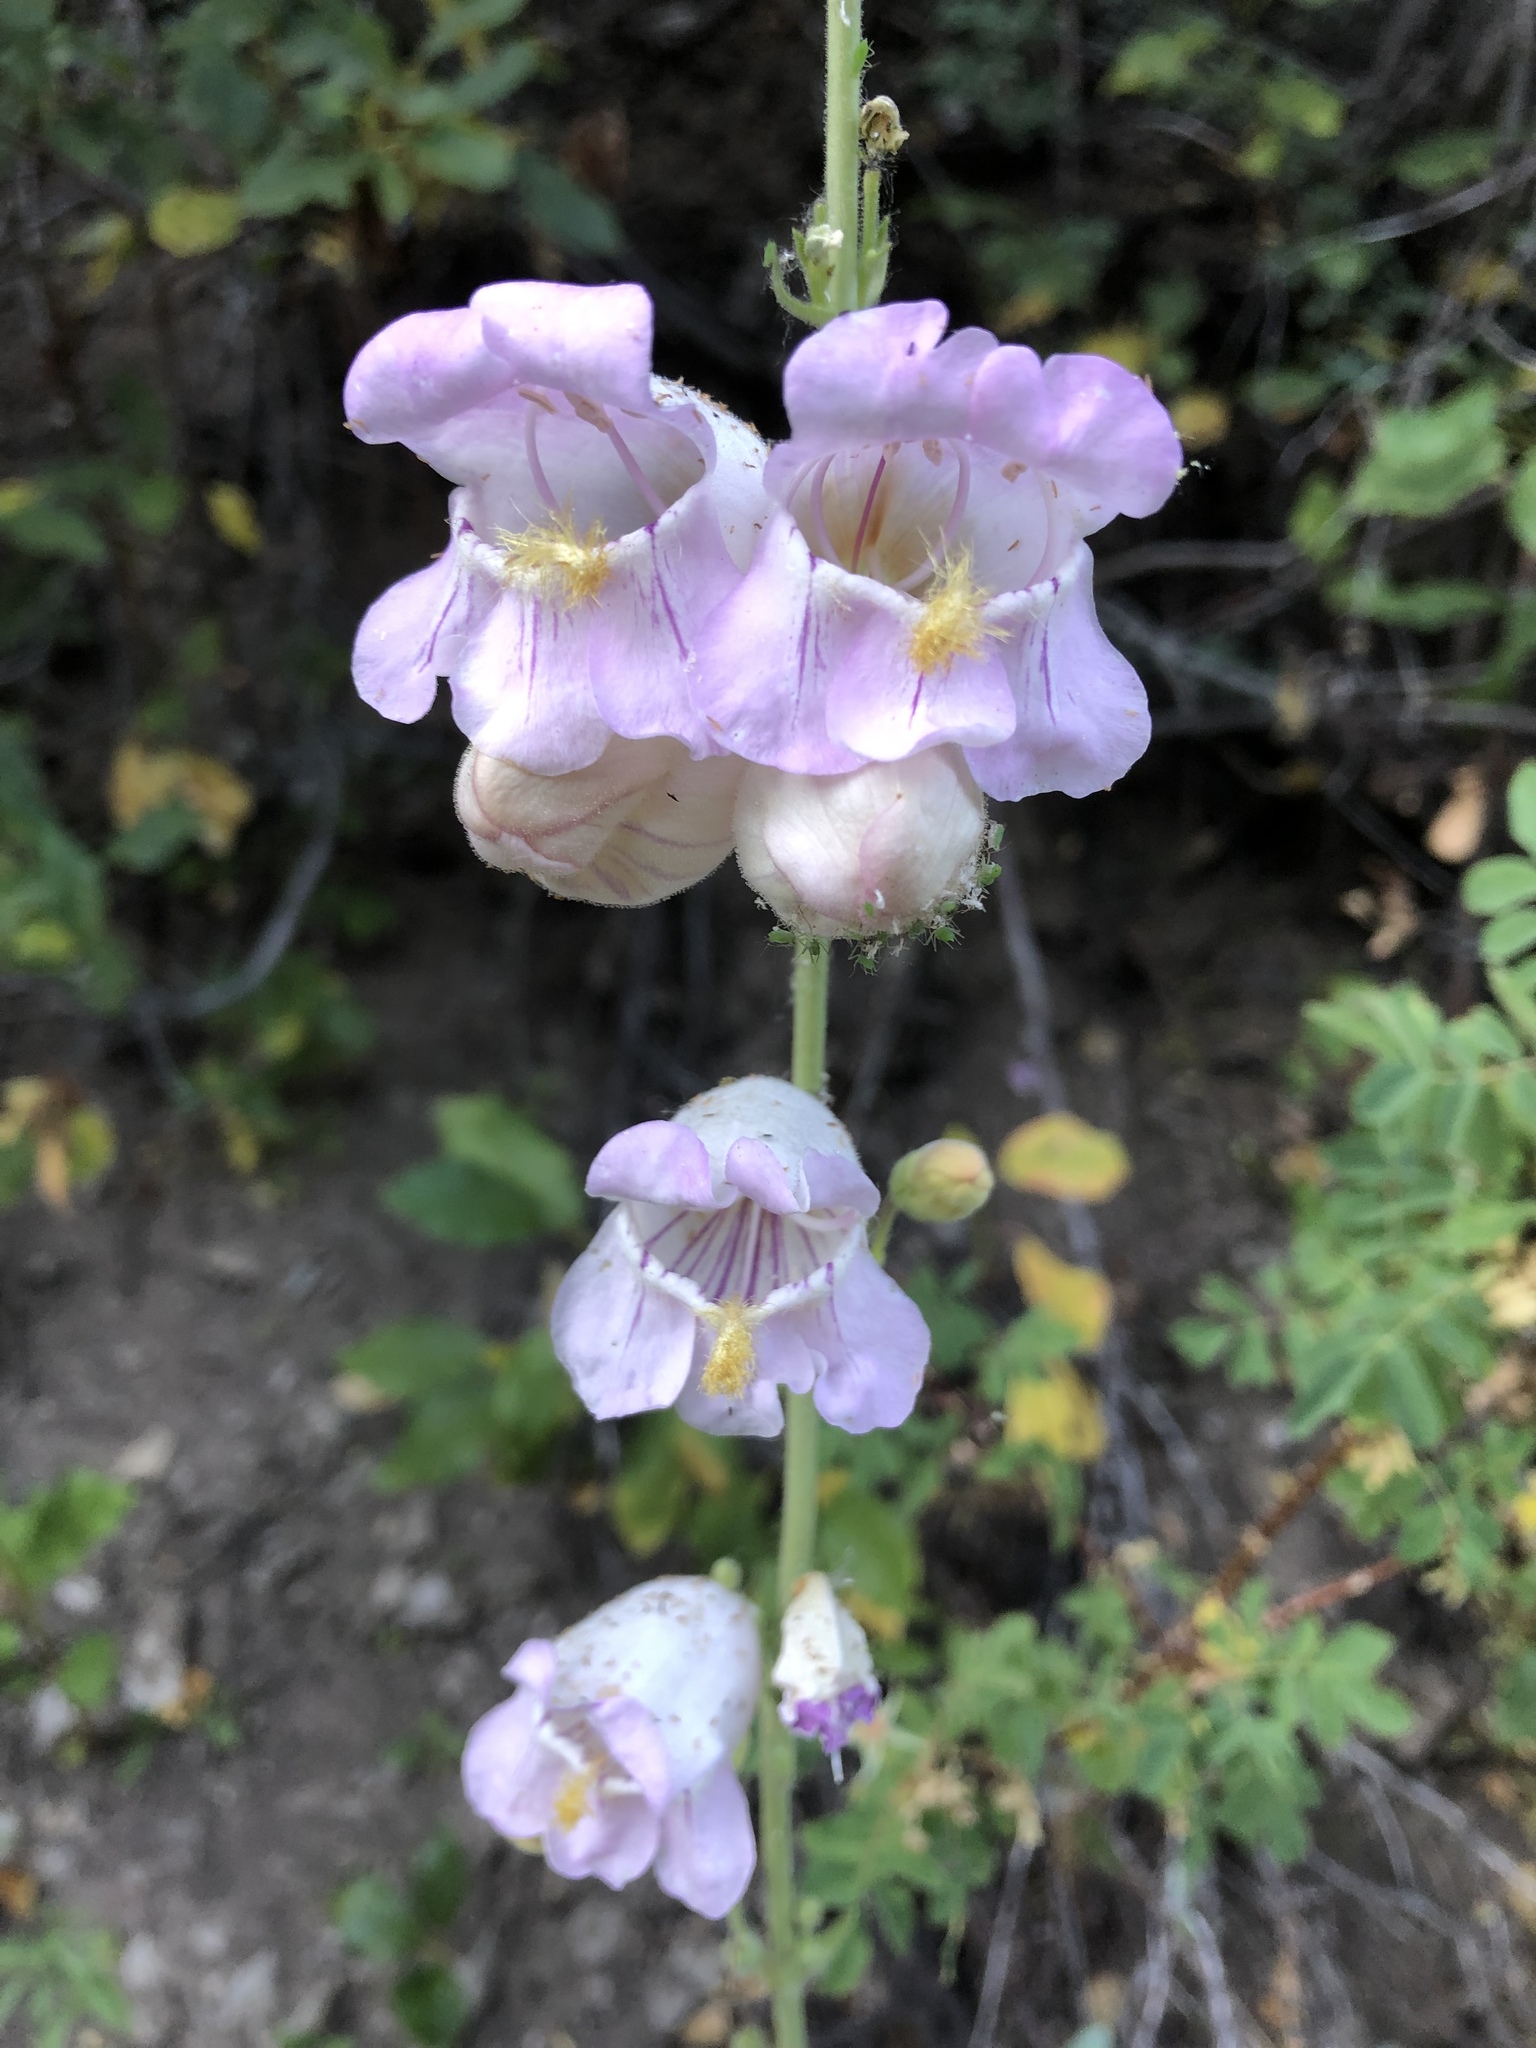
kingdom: Plantae
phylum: Tracheophyta
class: Magnoliopsida
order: Lamiales
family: Plantaginaceae
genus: Penstemon
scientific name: Penstemon palmeri
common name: Palmer penstemon
